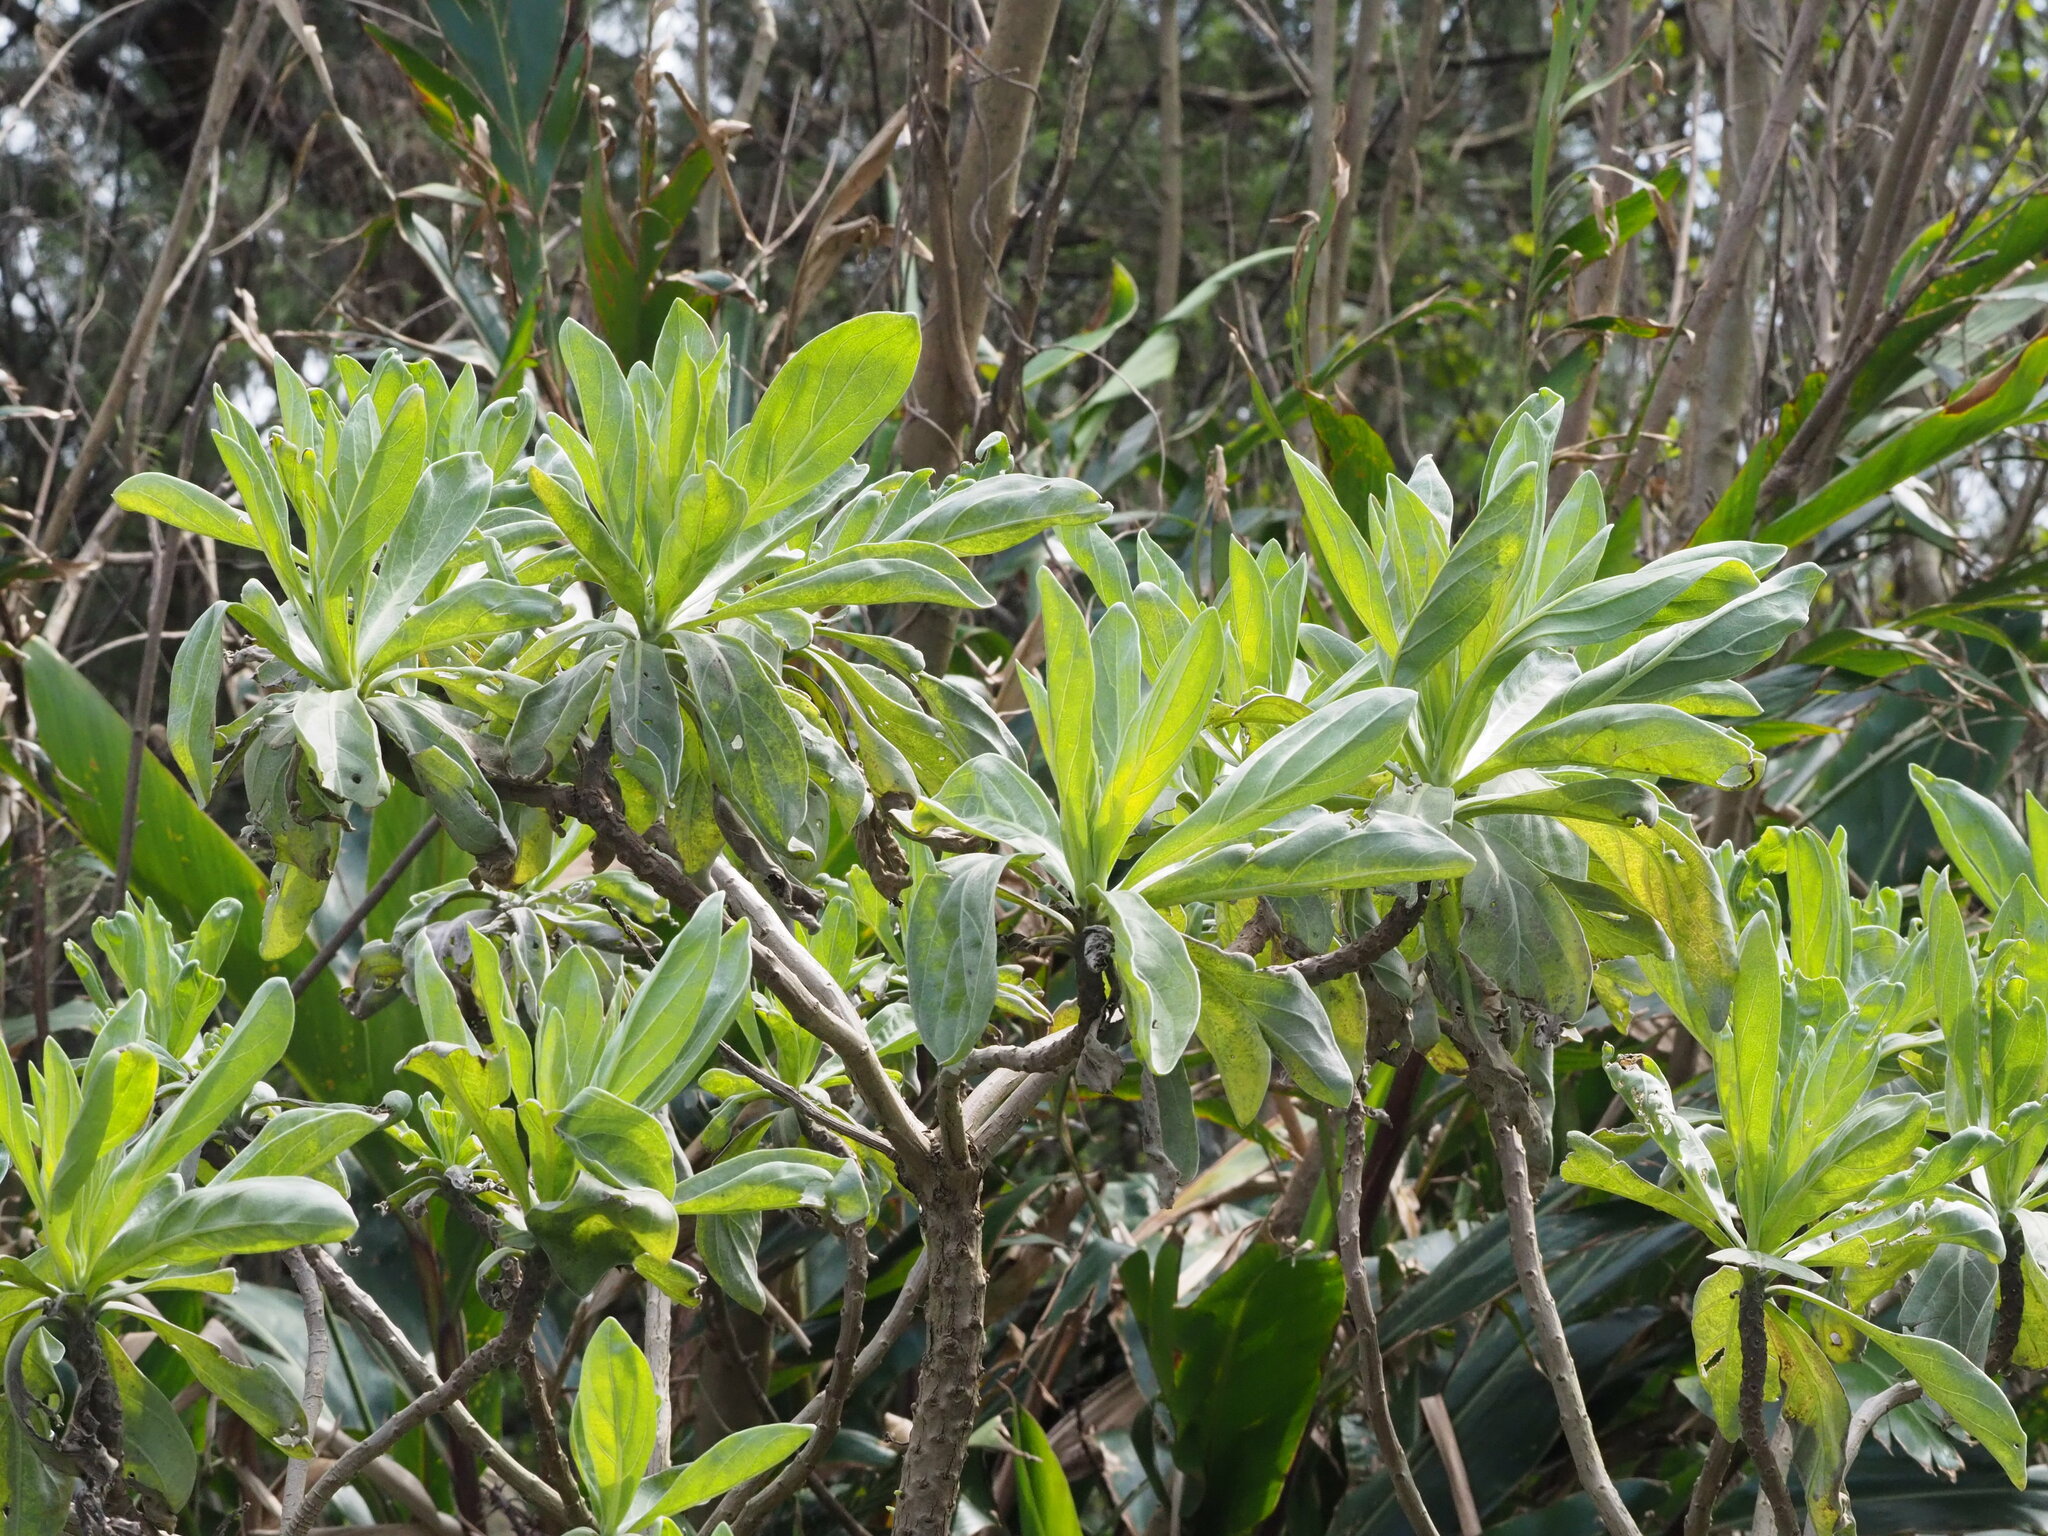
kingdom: Plantae
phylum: Tracheophyta
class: Magnoliopsida
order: Boraginales
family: Heliotropiaceae
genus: Heliotropium
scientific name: Heliotropium velutinum
